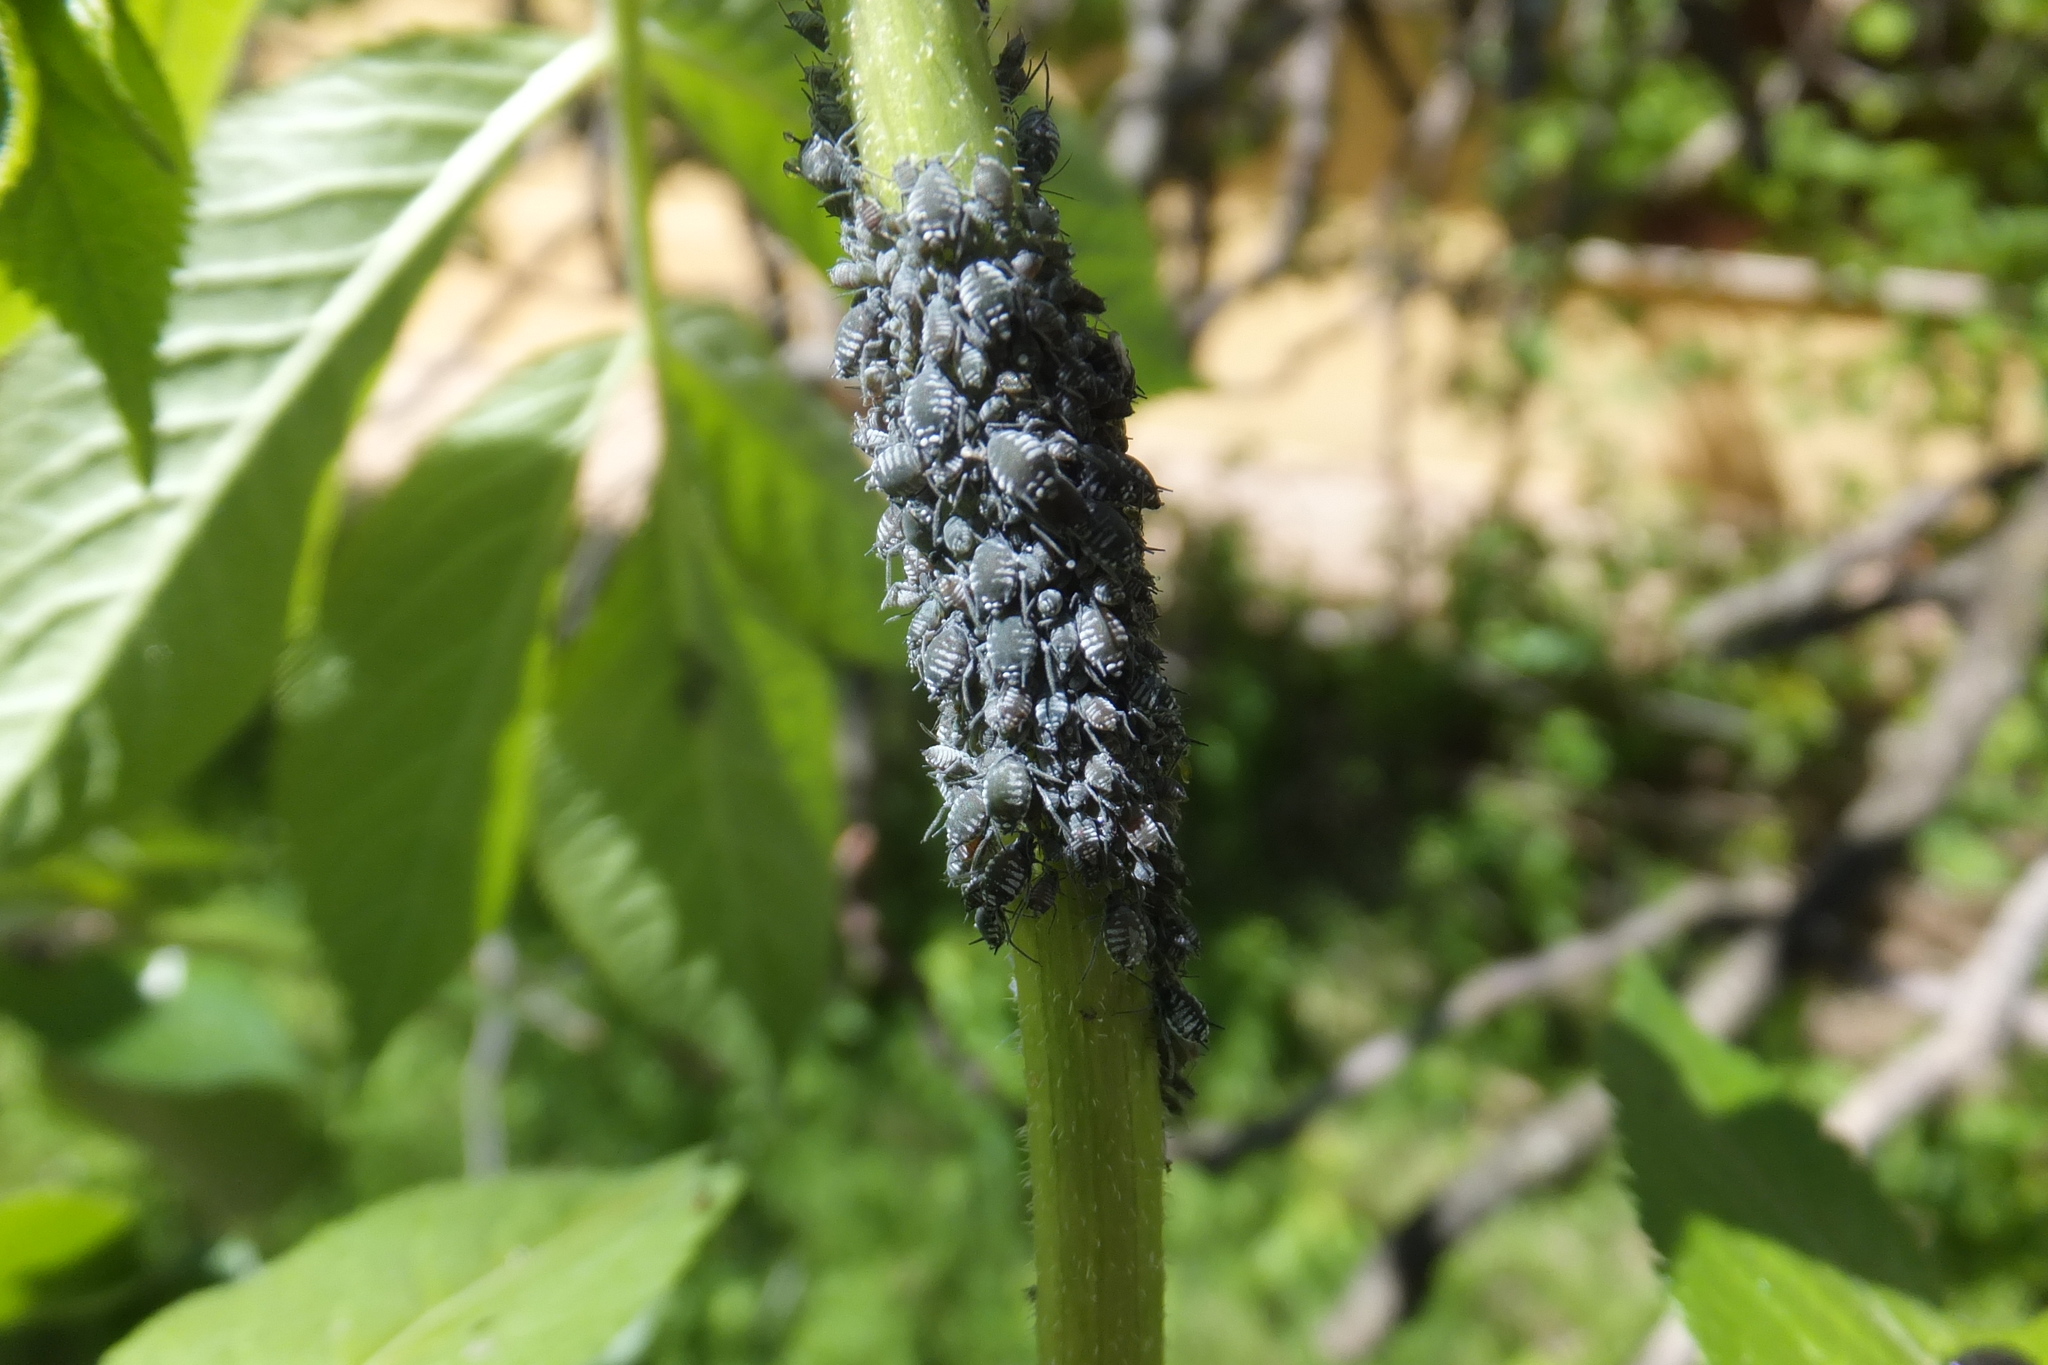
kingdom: Animalia
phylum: Arthropoda
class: Insecta
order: Hemiptera
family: Aphididae
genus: Aphis
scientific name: Aphis sambuci
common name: Elder aphid
